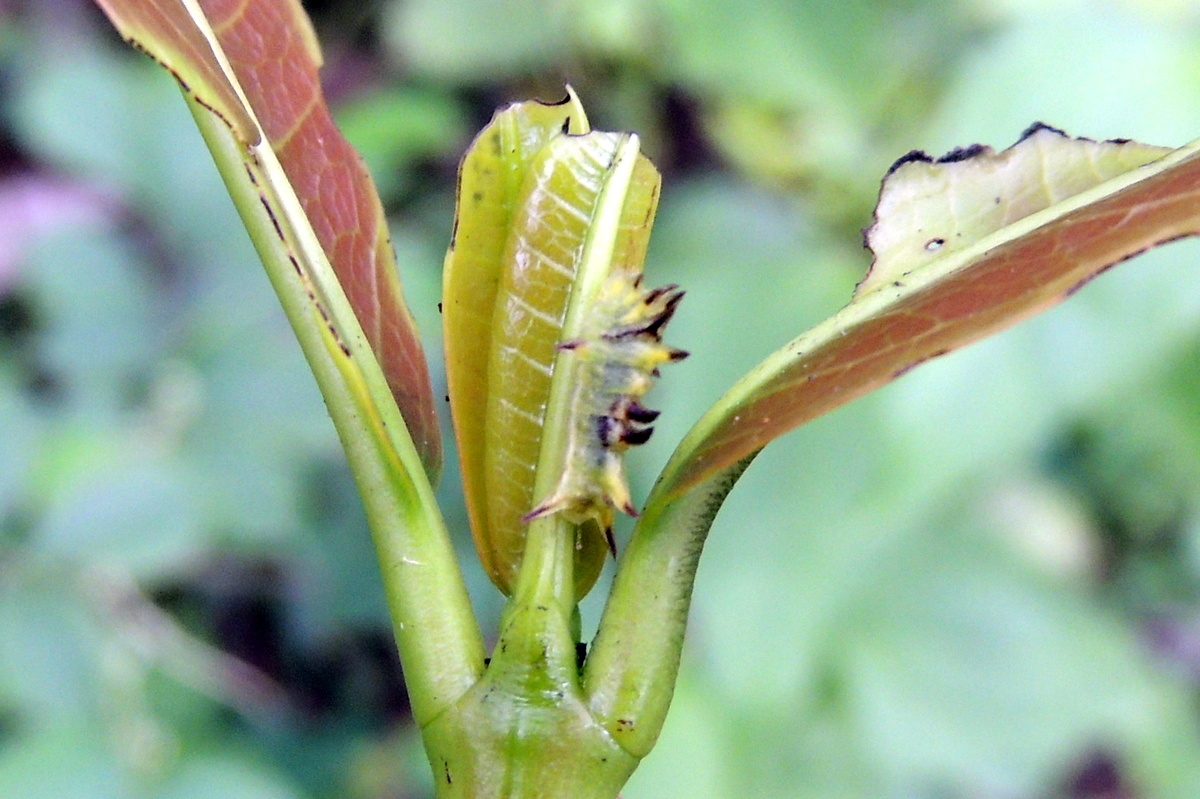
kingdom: Animalia
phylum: Arthropoda
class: Insecta
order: Lepidoptera
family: Lycaenidae
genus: Rathinda
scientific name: Rathinda amor
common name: Monkey puzzle
